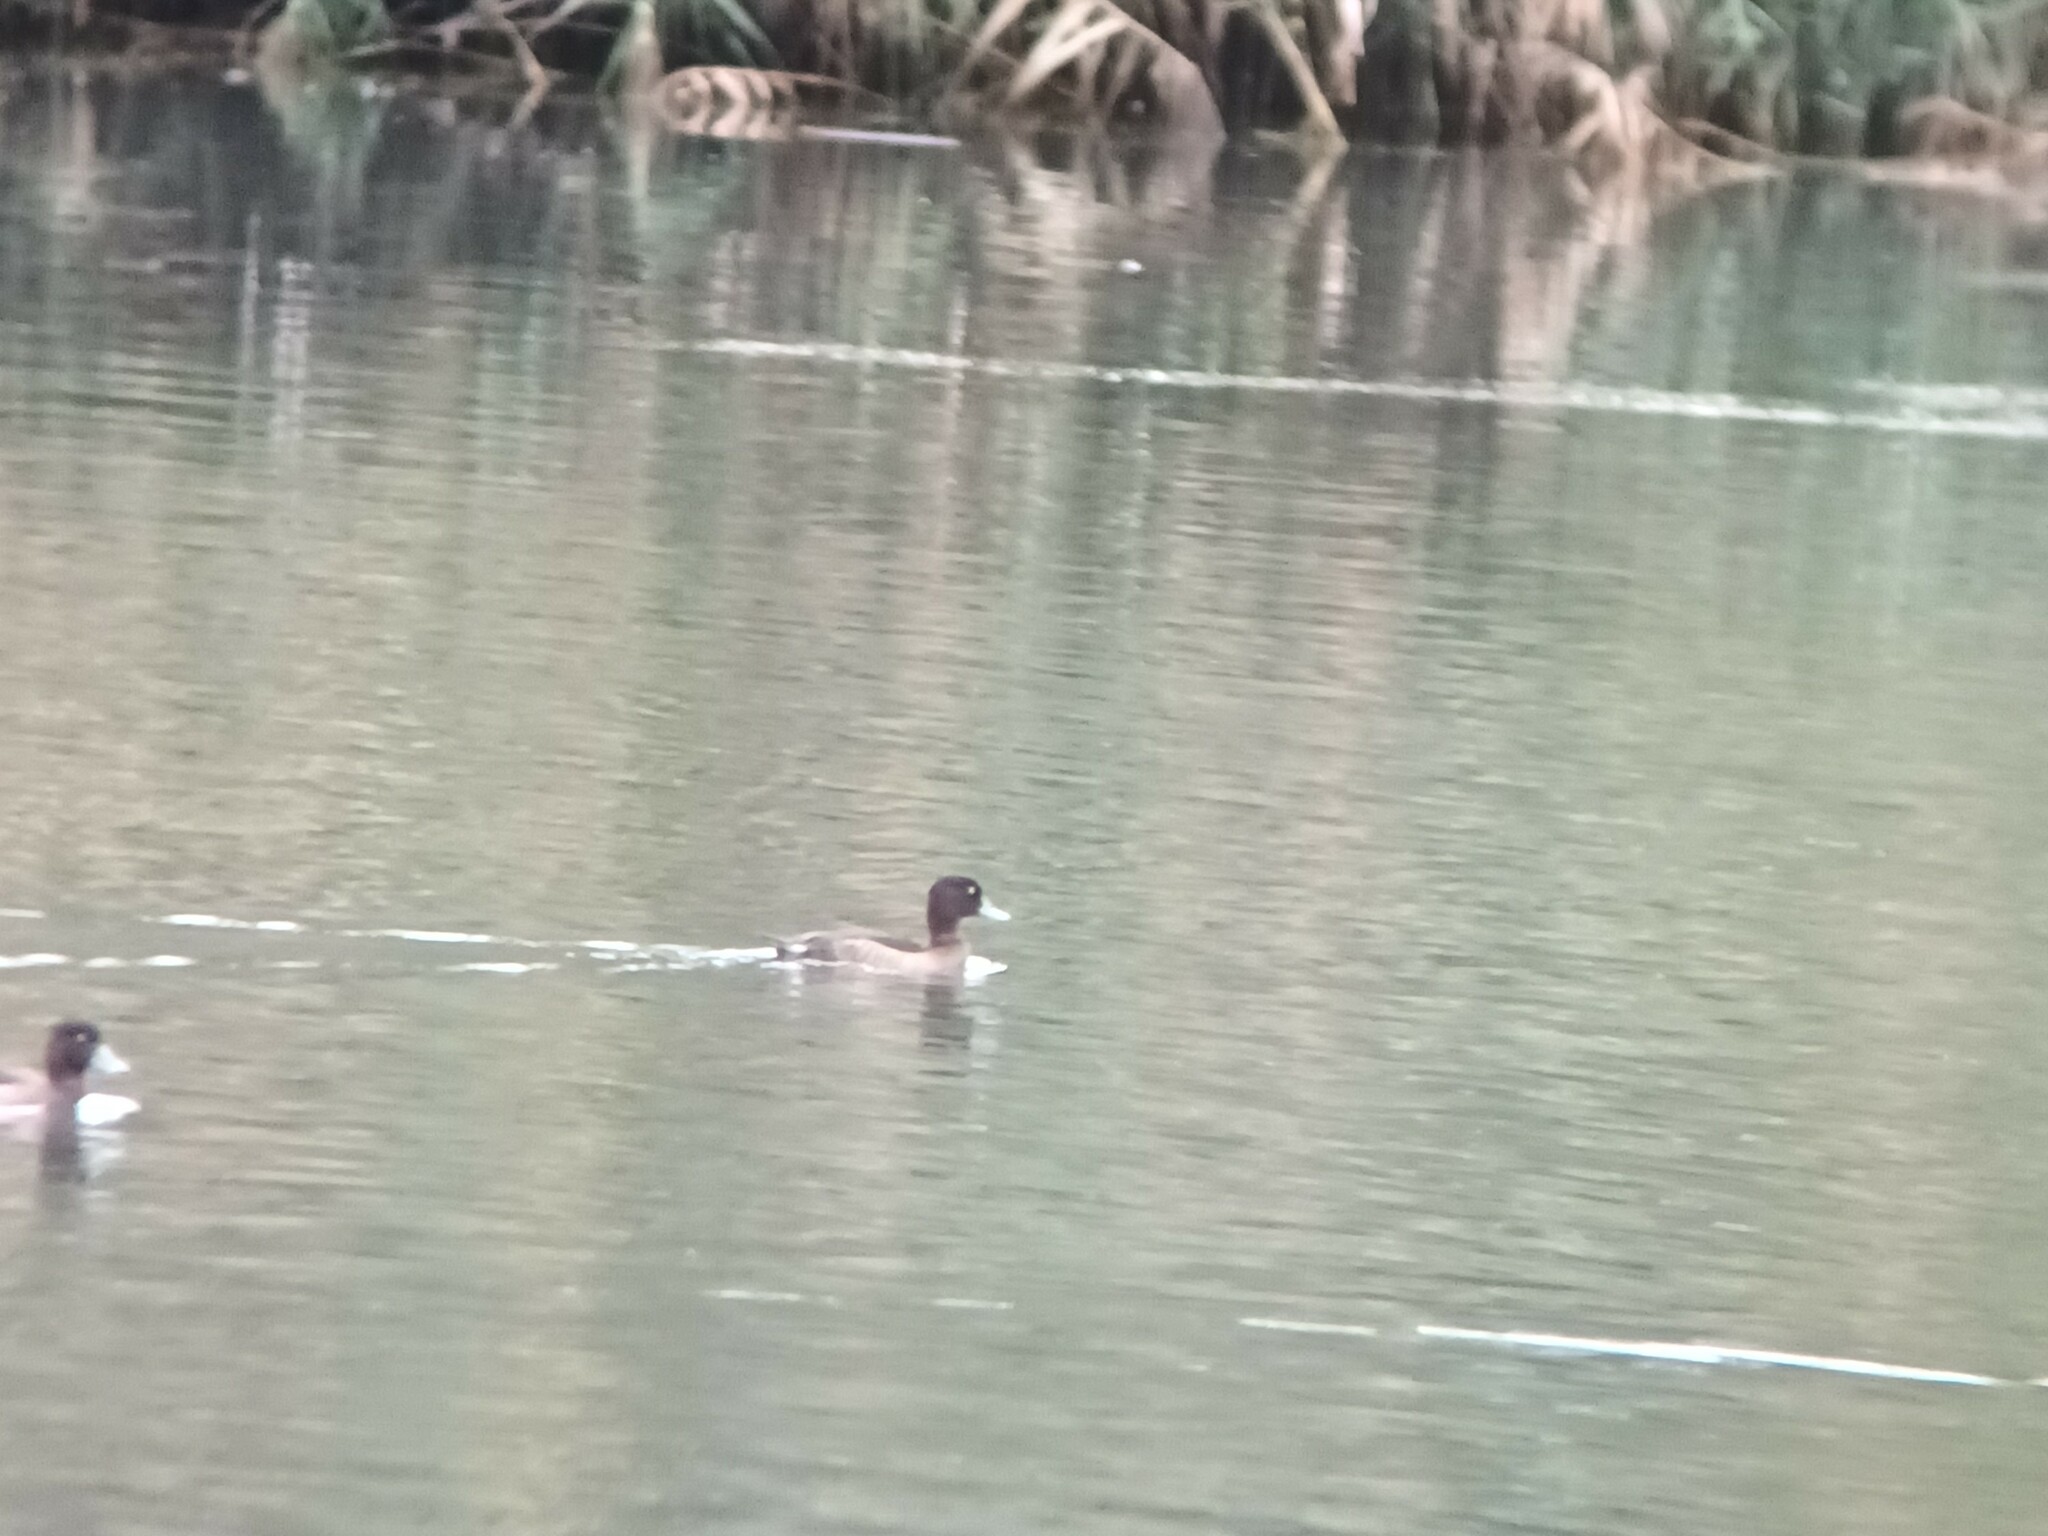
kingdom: Animalia
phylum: Chordata
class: Aves
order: Anseriformes
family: Anatidae
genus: Aythya
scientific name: Aythya fuligula
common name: Tufted duck
